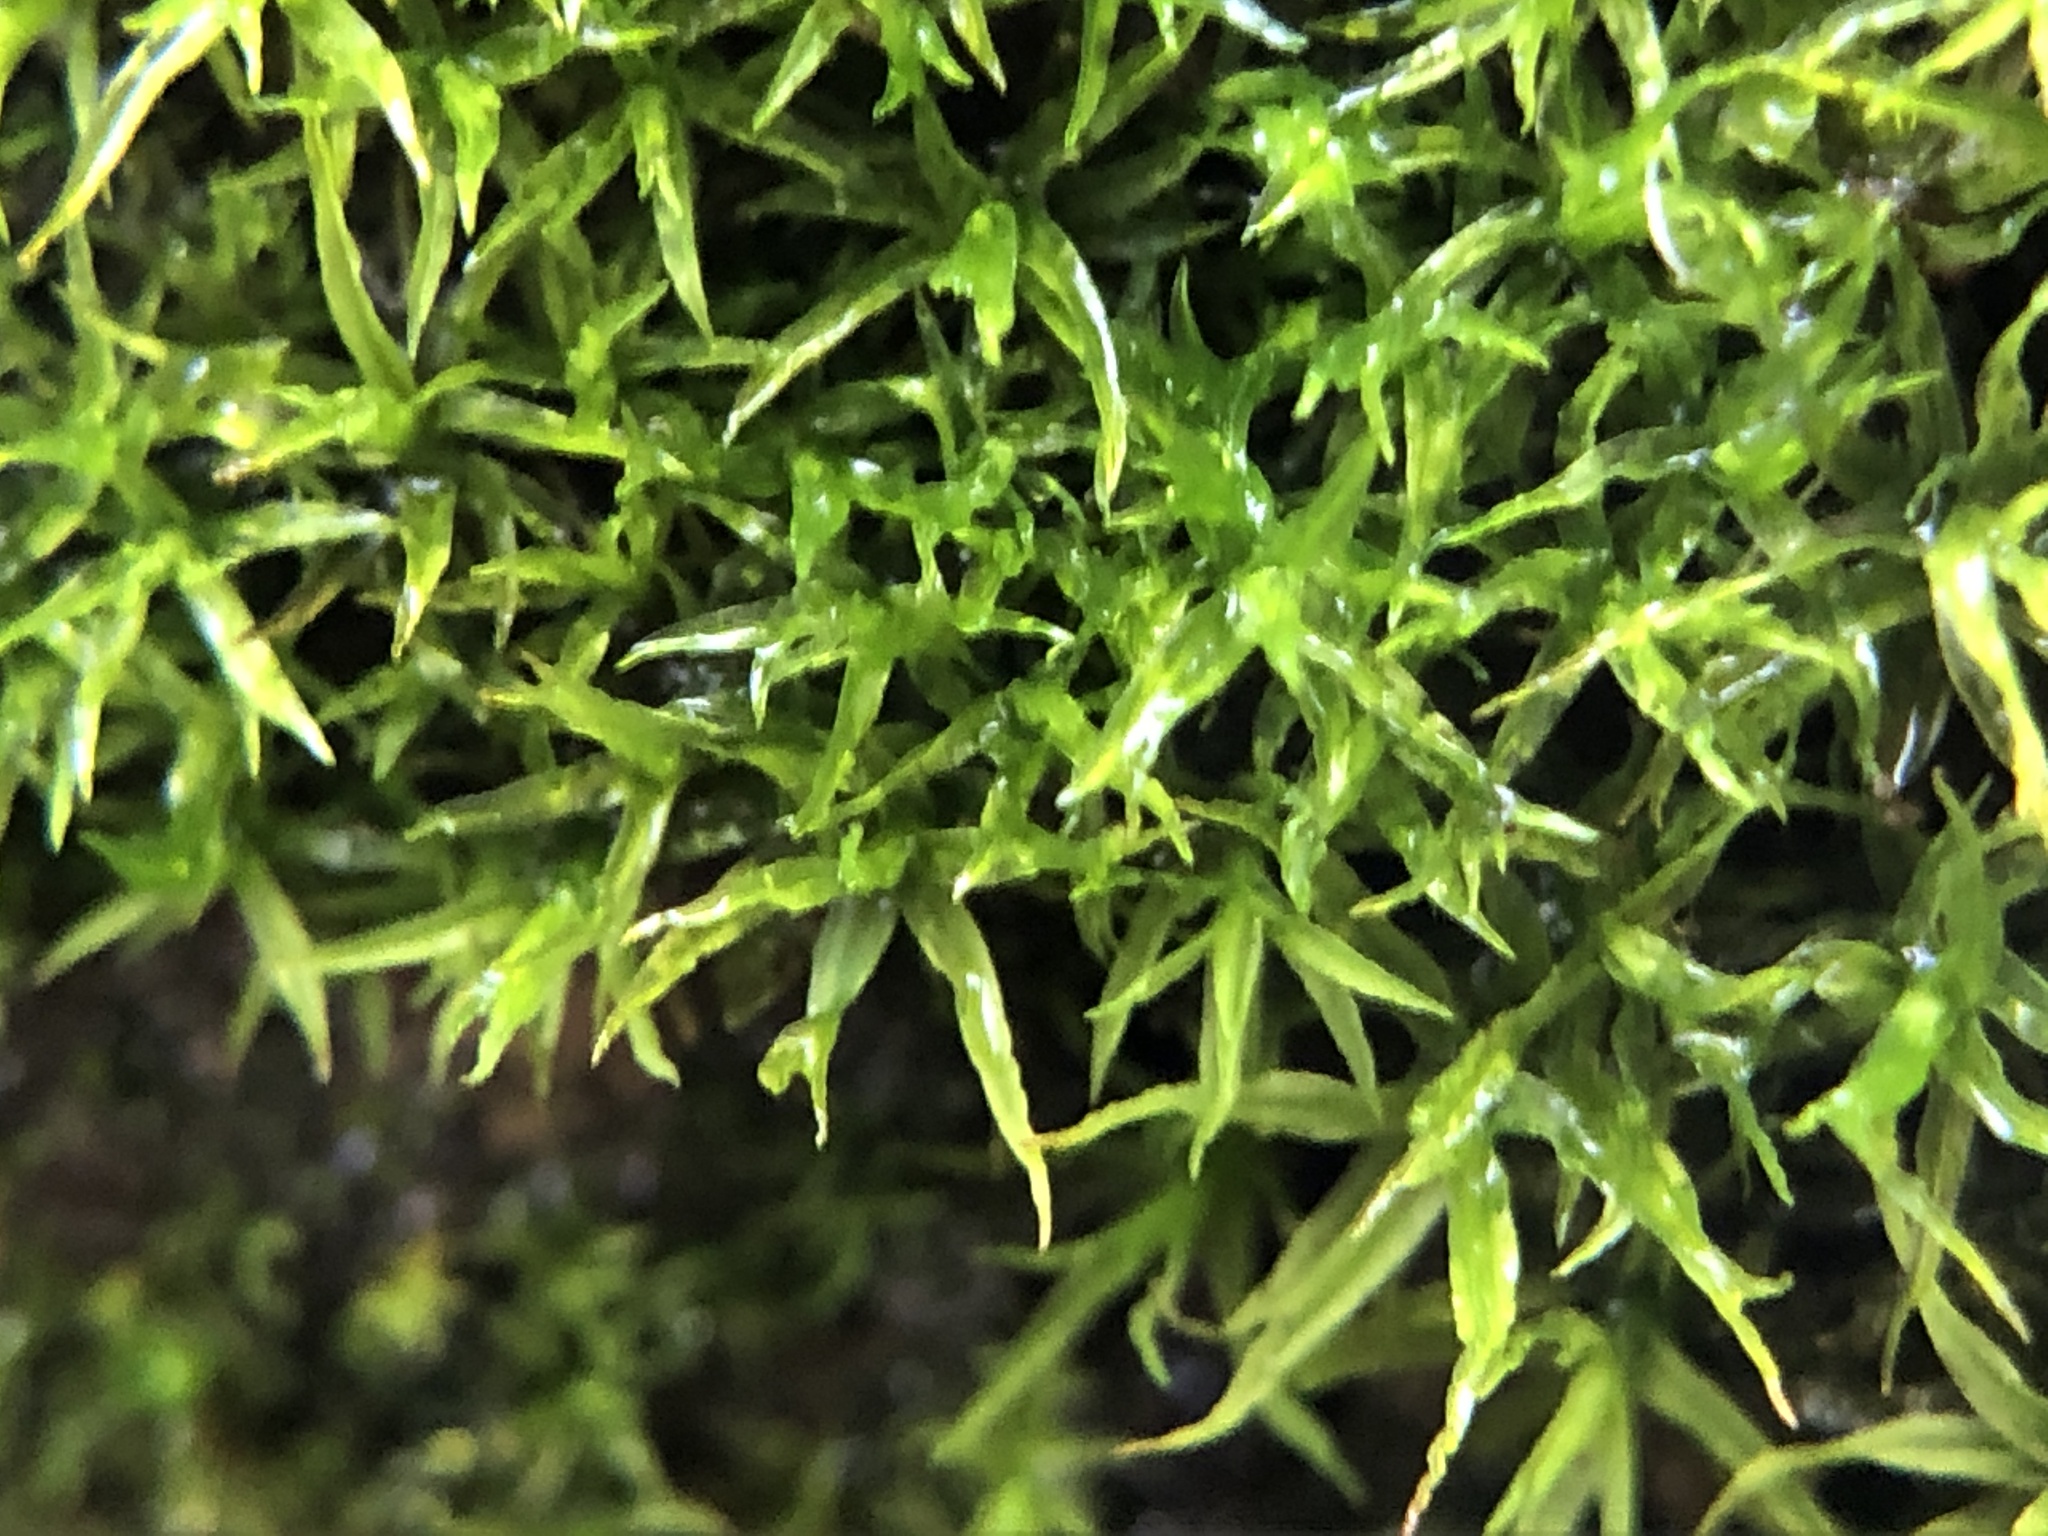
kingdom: Plantae
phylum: Bryophyta
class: Bryopsida
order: Pottiales
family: Pottiaceae
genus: Husnotiella
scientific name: Husnotiella sinuosa
